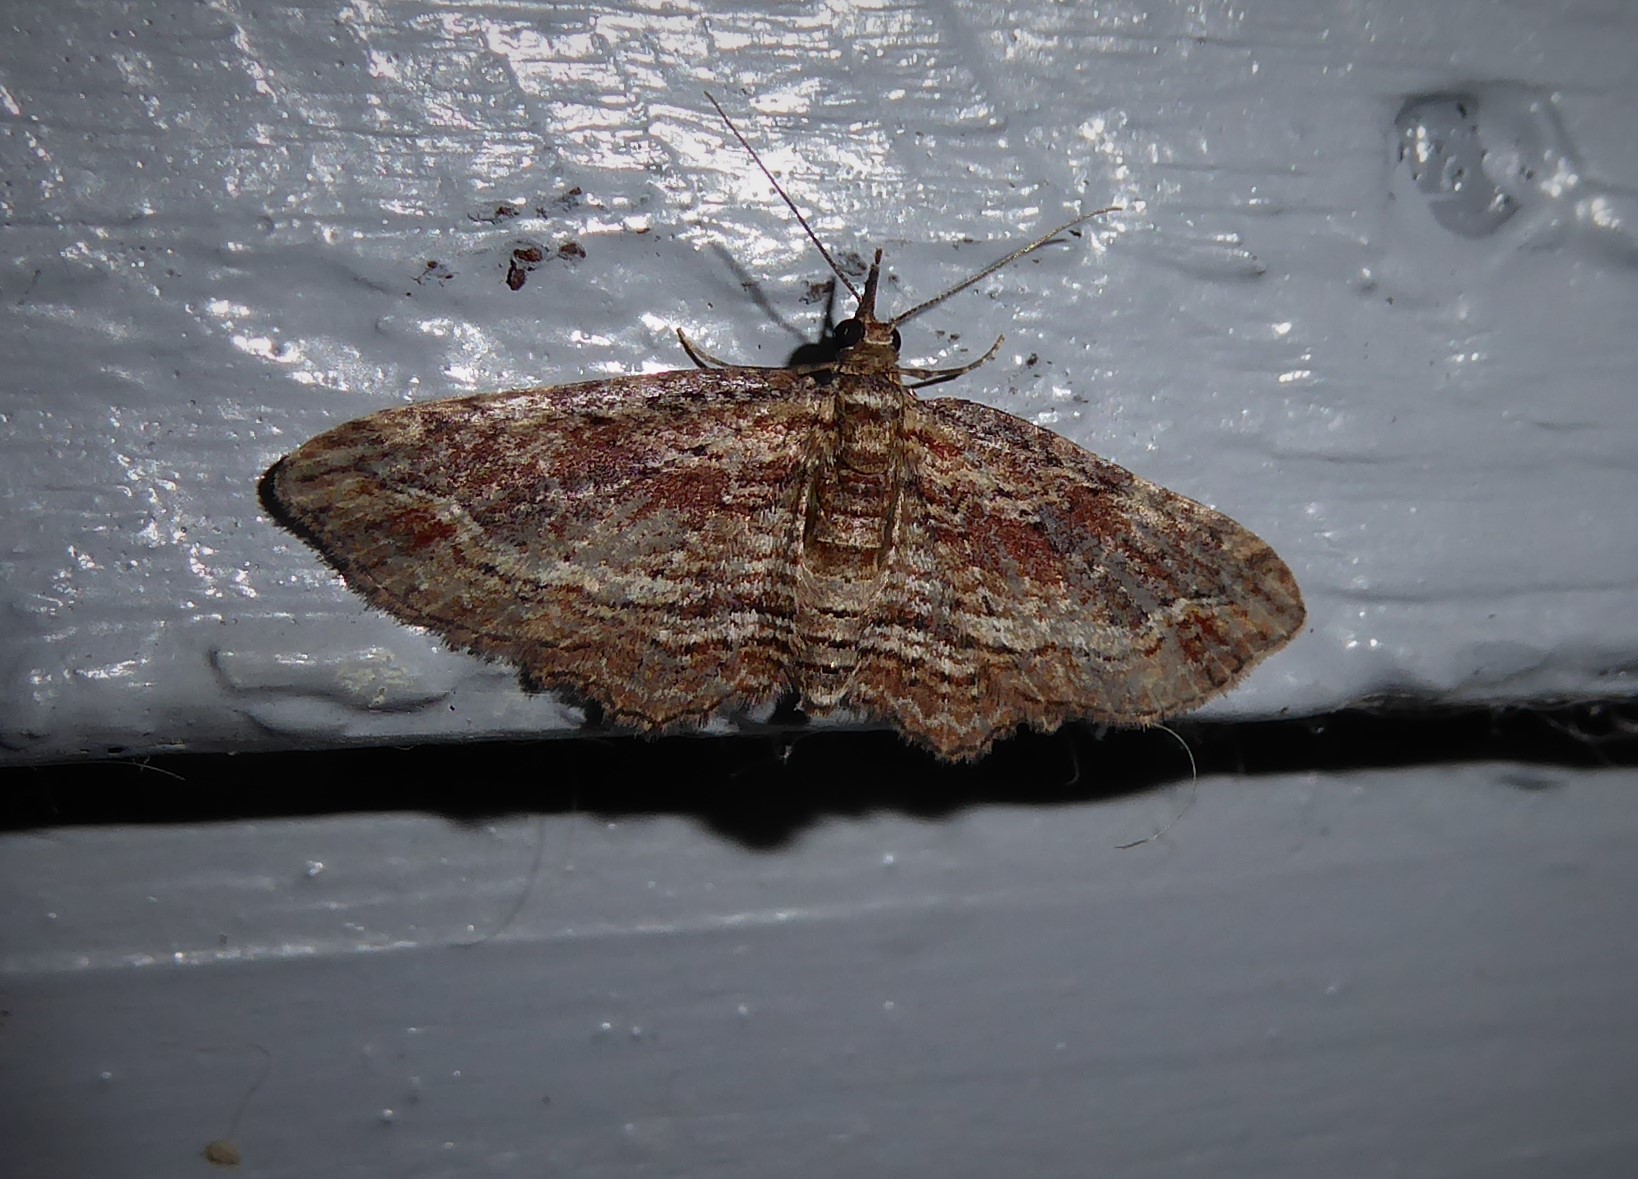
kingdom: Animalia
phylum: Arthropoda
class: Insecta
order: Lepidoptera
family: Geometridae
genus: Chloroclystis
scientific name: Chloroclystis filata
